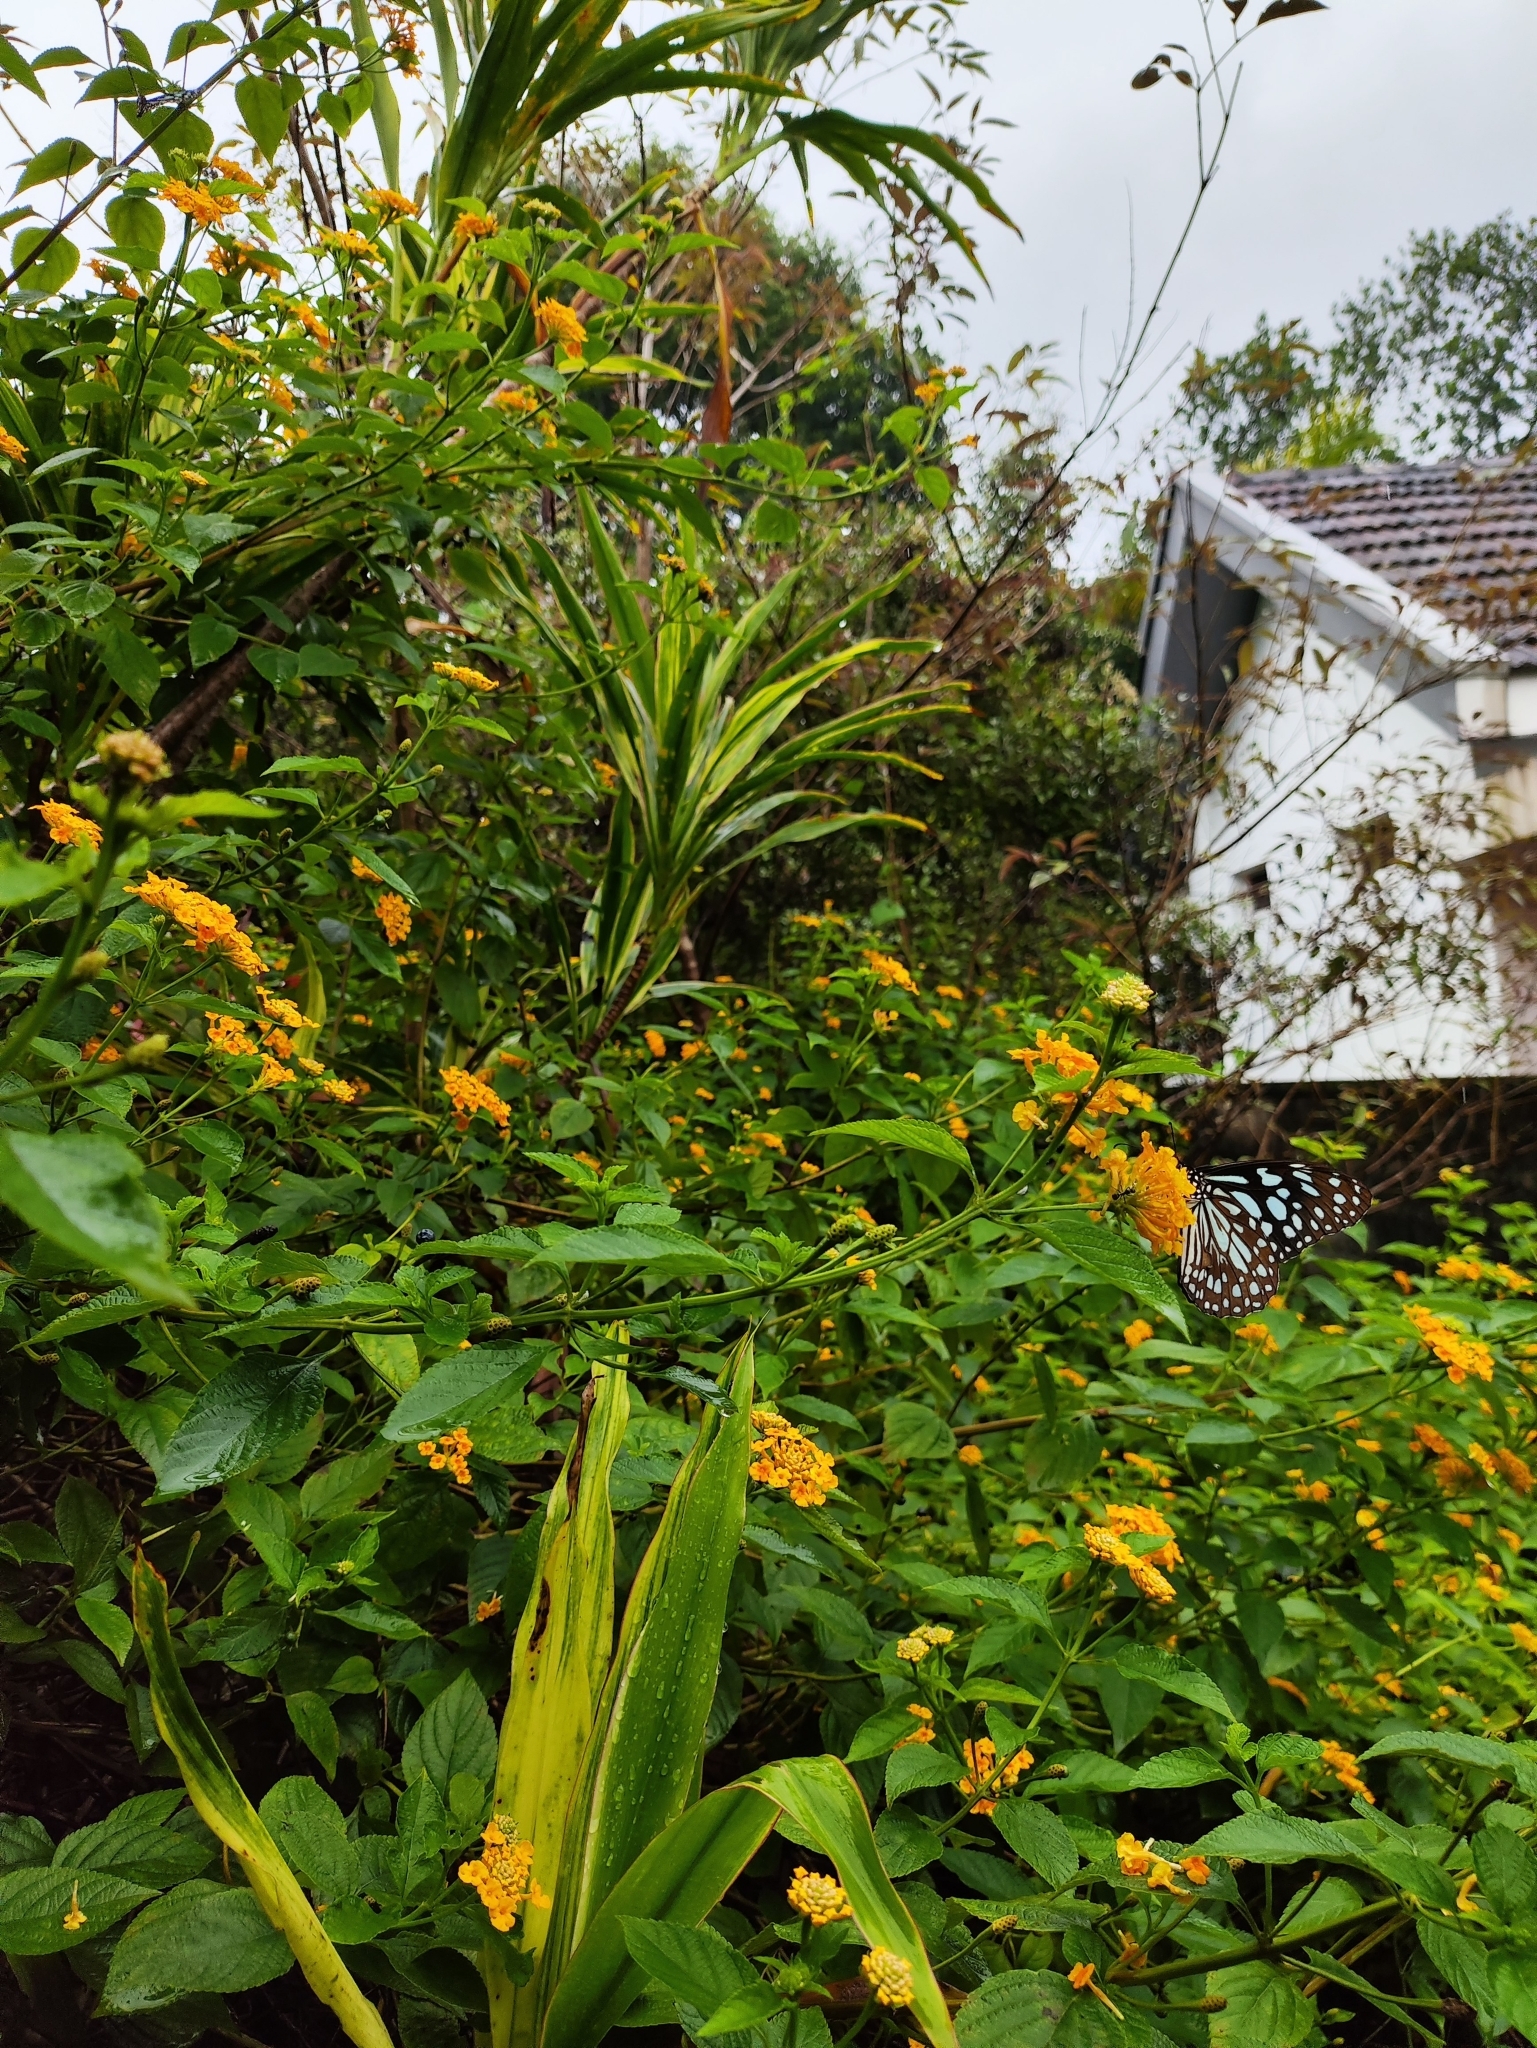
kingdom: Animalia
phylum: Arthropoda
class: Insecta
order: Lepidoptera
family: Nymphalidae
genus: Tirumala
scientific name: Tirumala limniace
